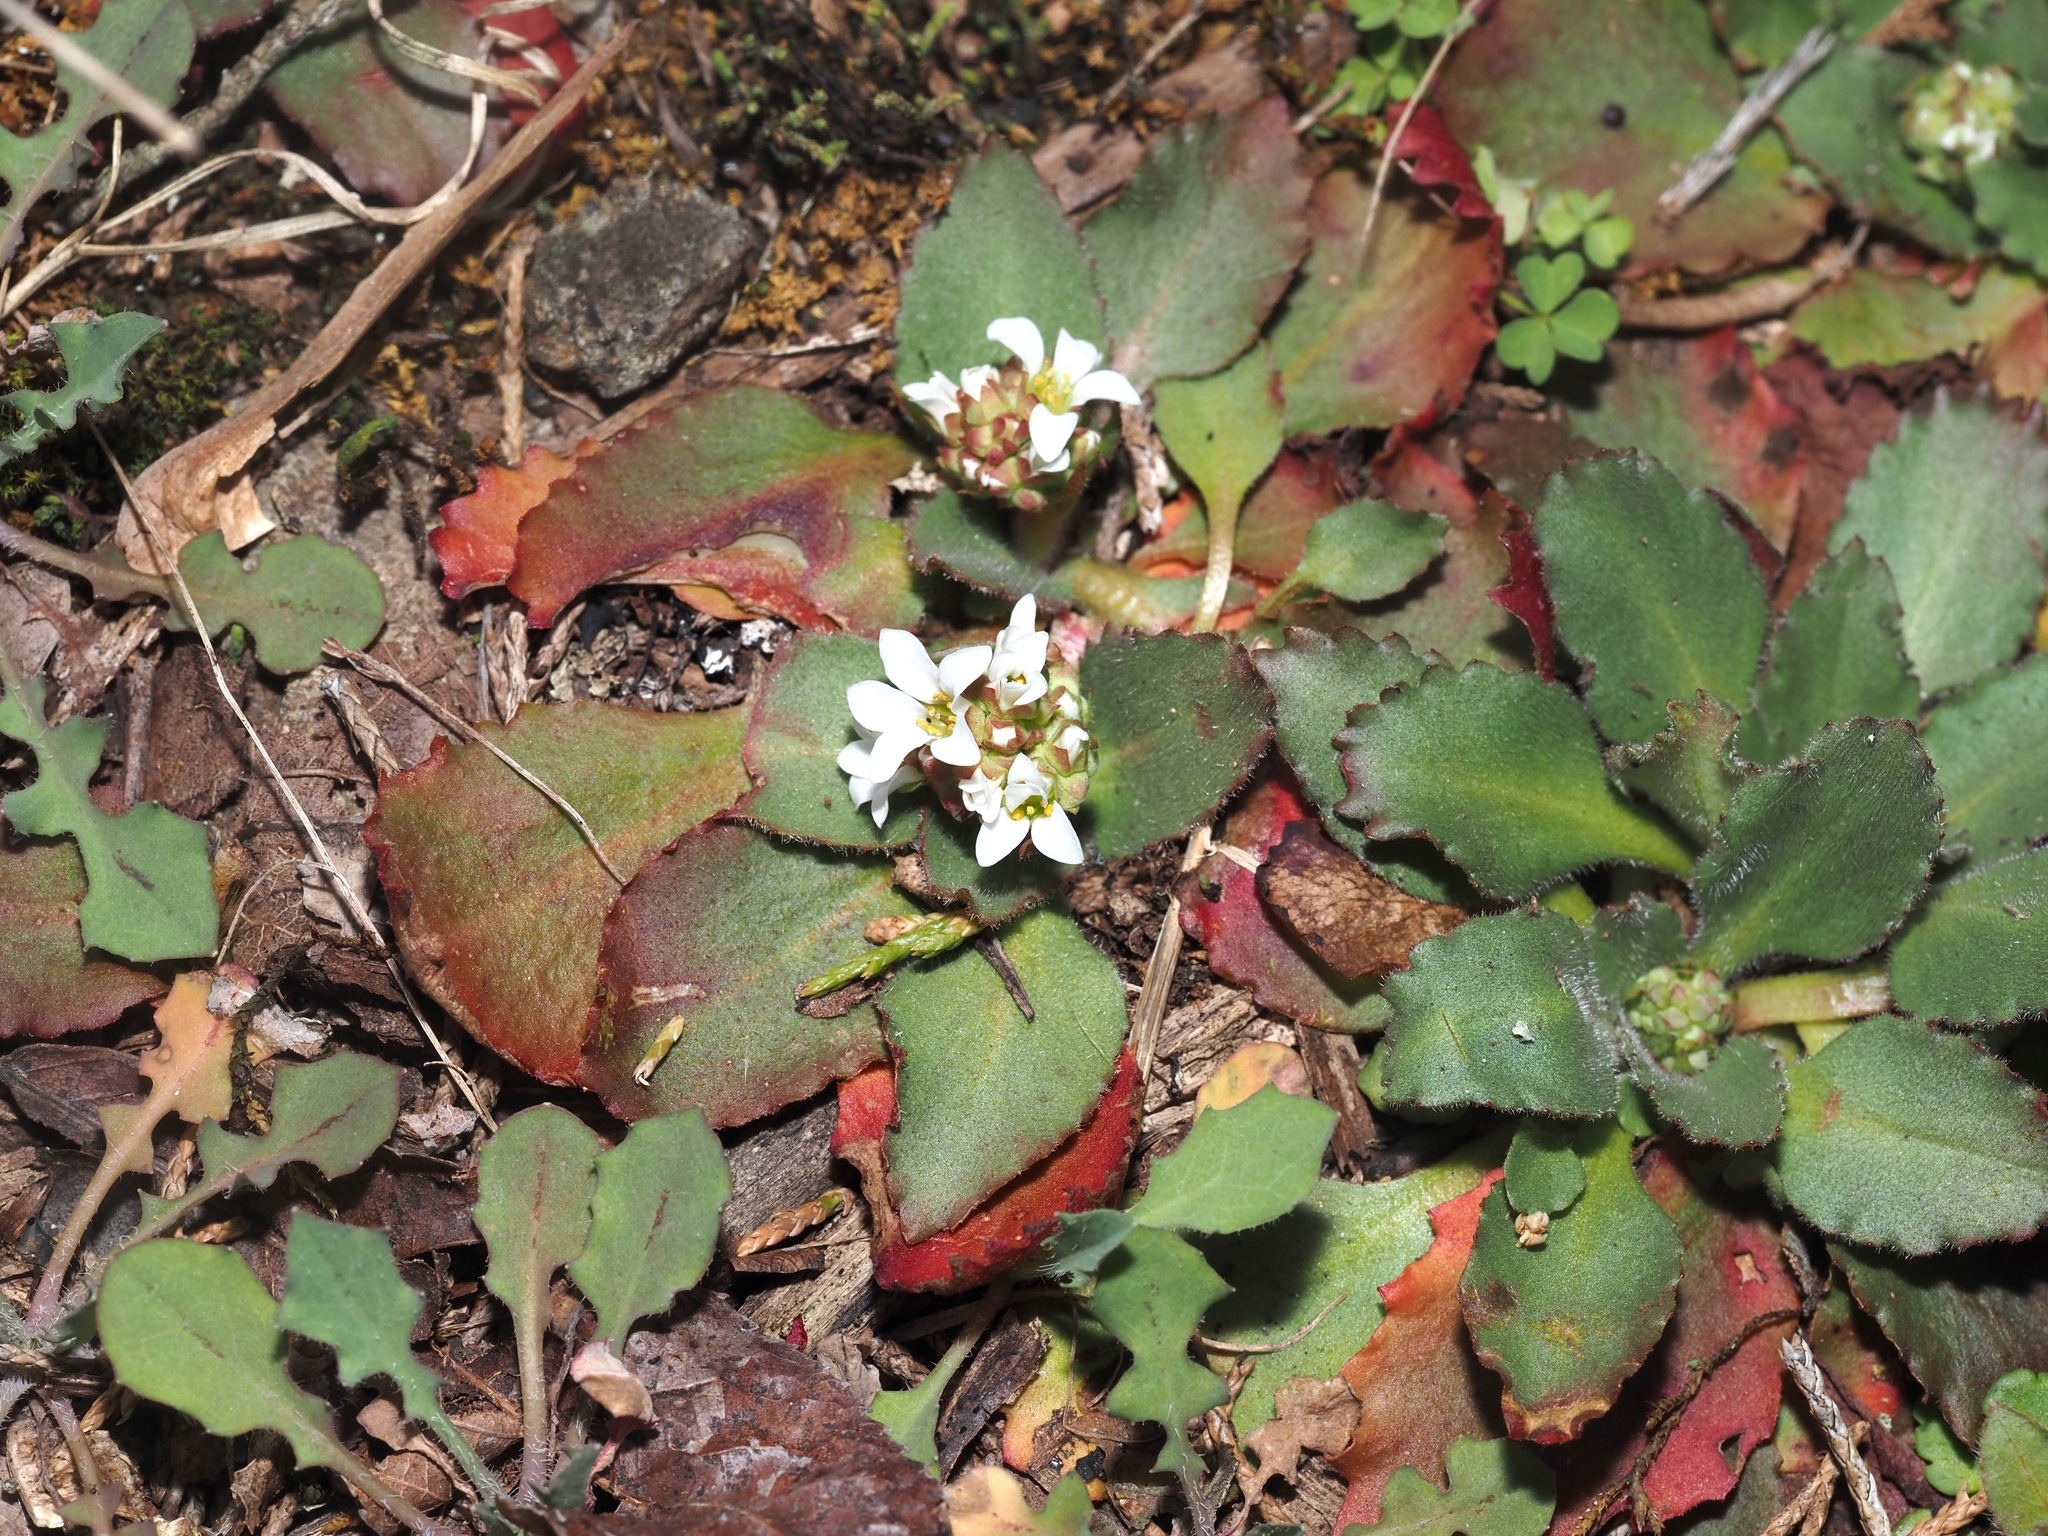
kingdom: Plantae
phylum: Tracheophyta
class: Magnoliopsida
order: Saxifragales
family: Saxifragaceae
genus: Micranthes
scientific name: Micranthes virginiensis
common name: Early saxifrage
